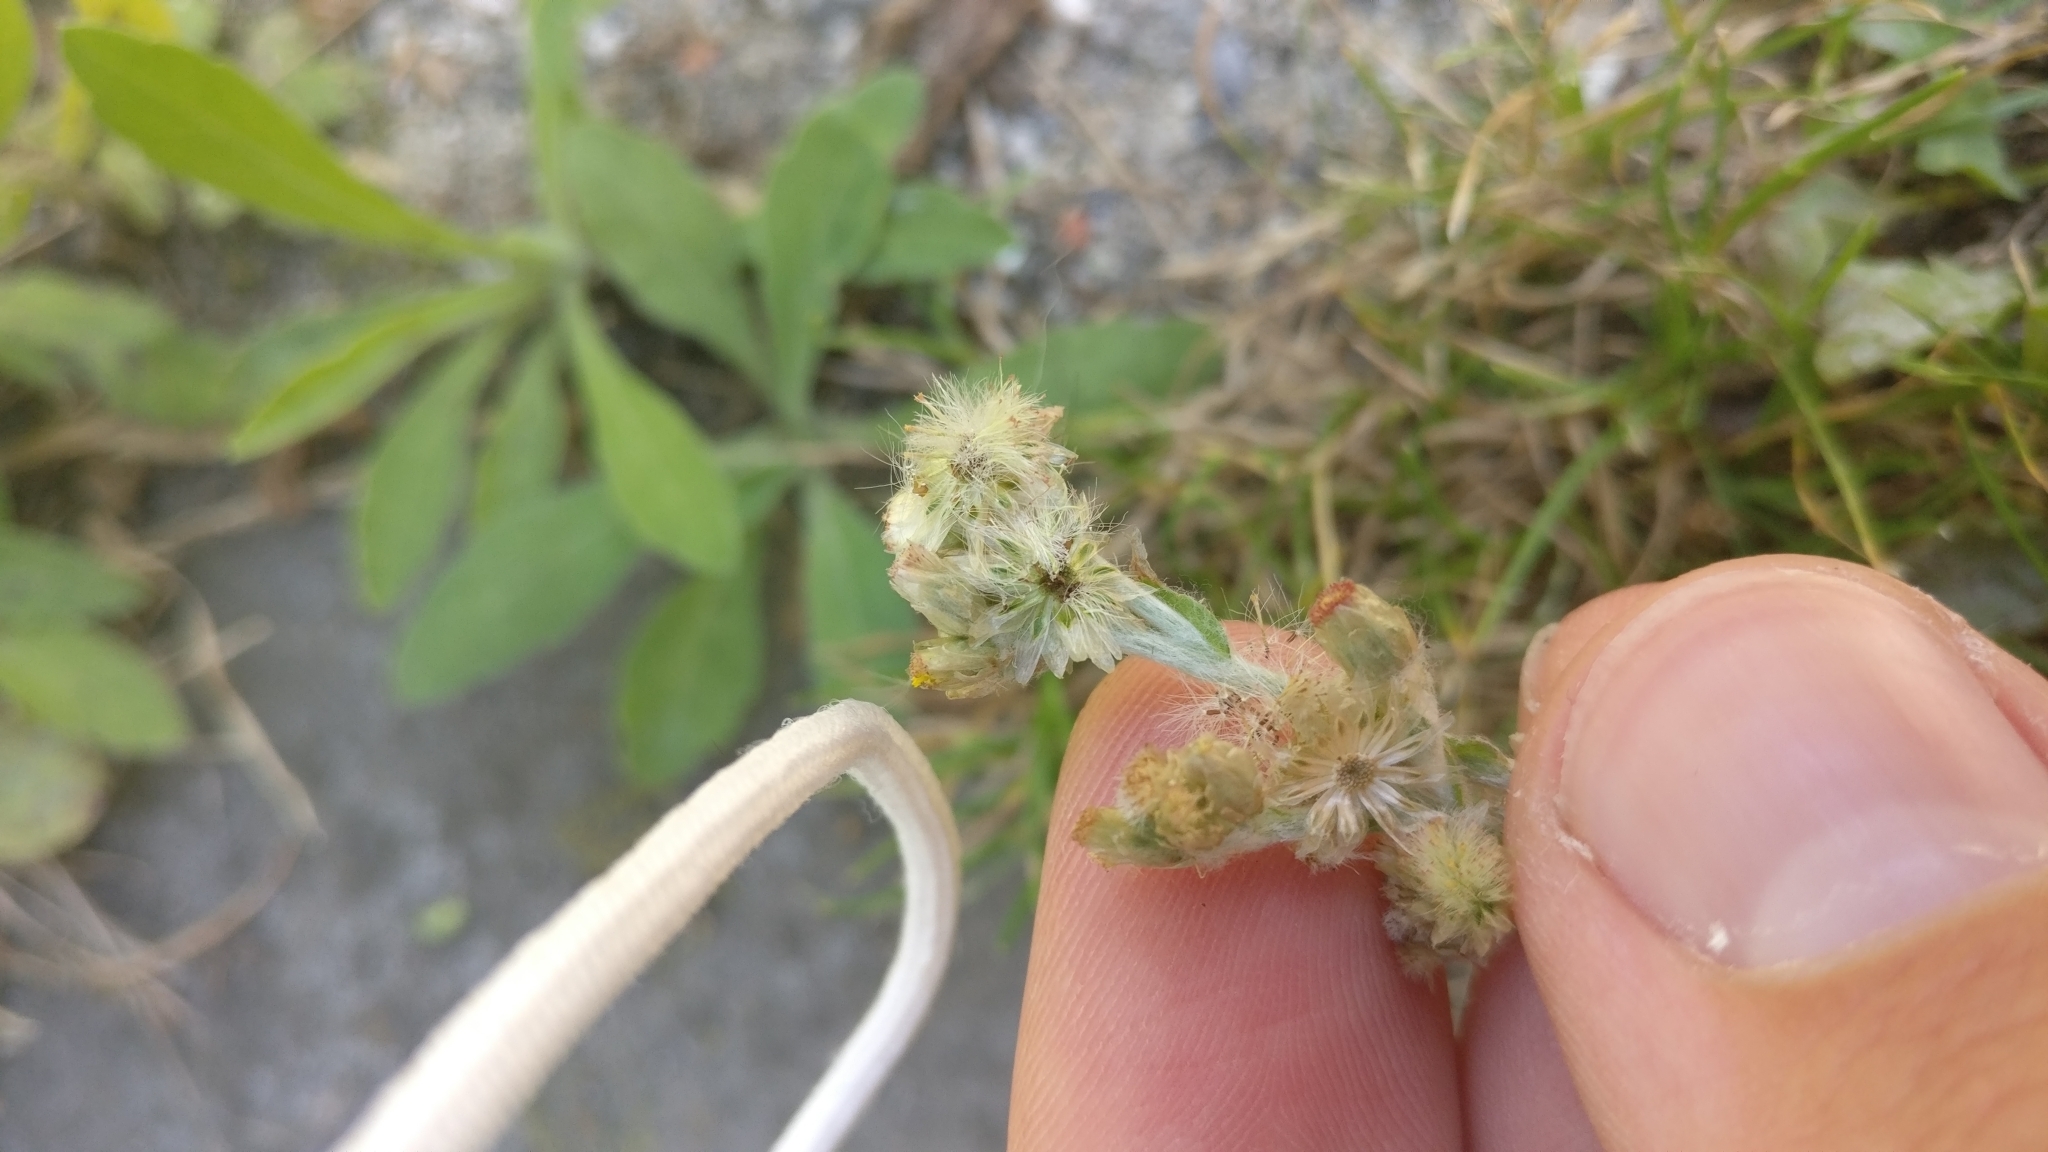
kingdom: Plantae
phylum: Tracheophyta
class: Magnoliopsida
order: Asterales
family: Asteraceae
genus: Helichrysum
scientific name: Helichrysum luteoalbum
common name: Daisy
